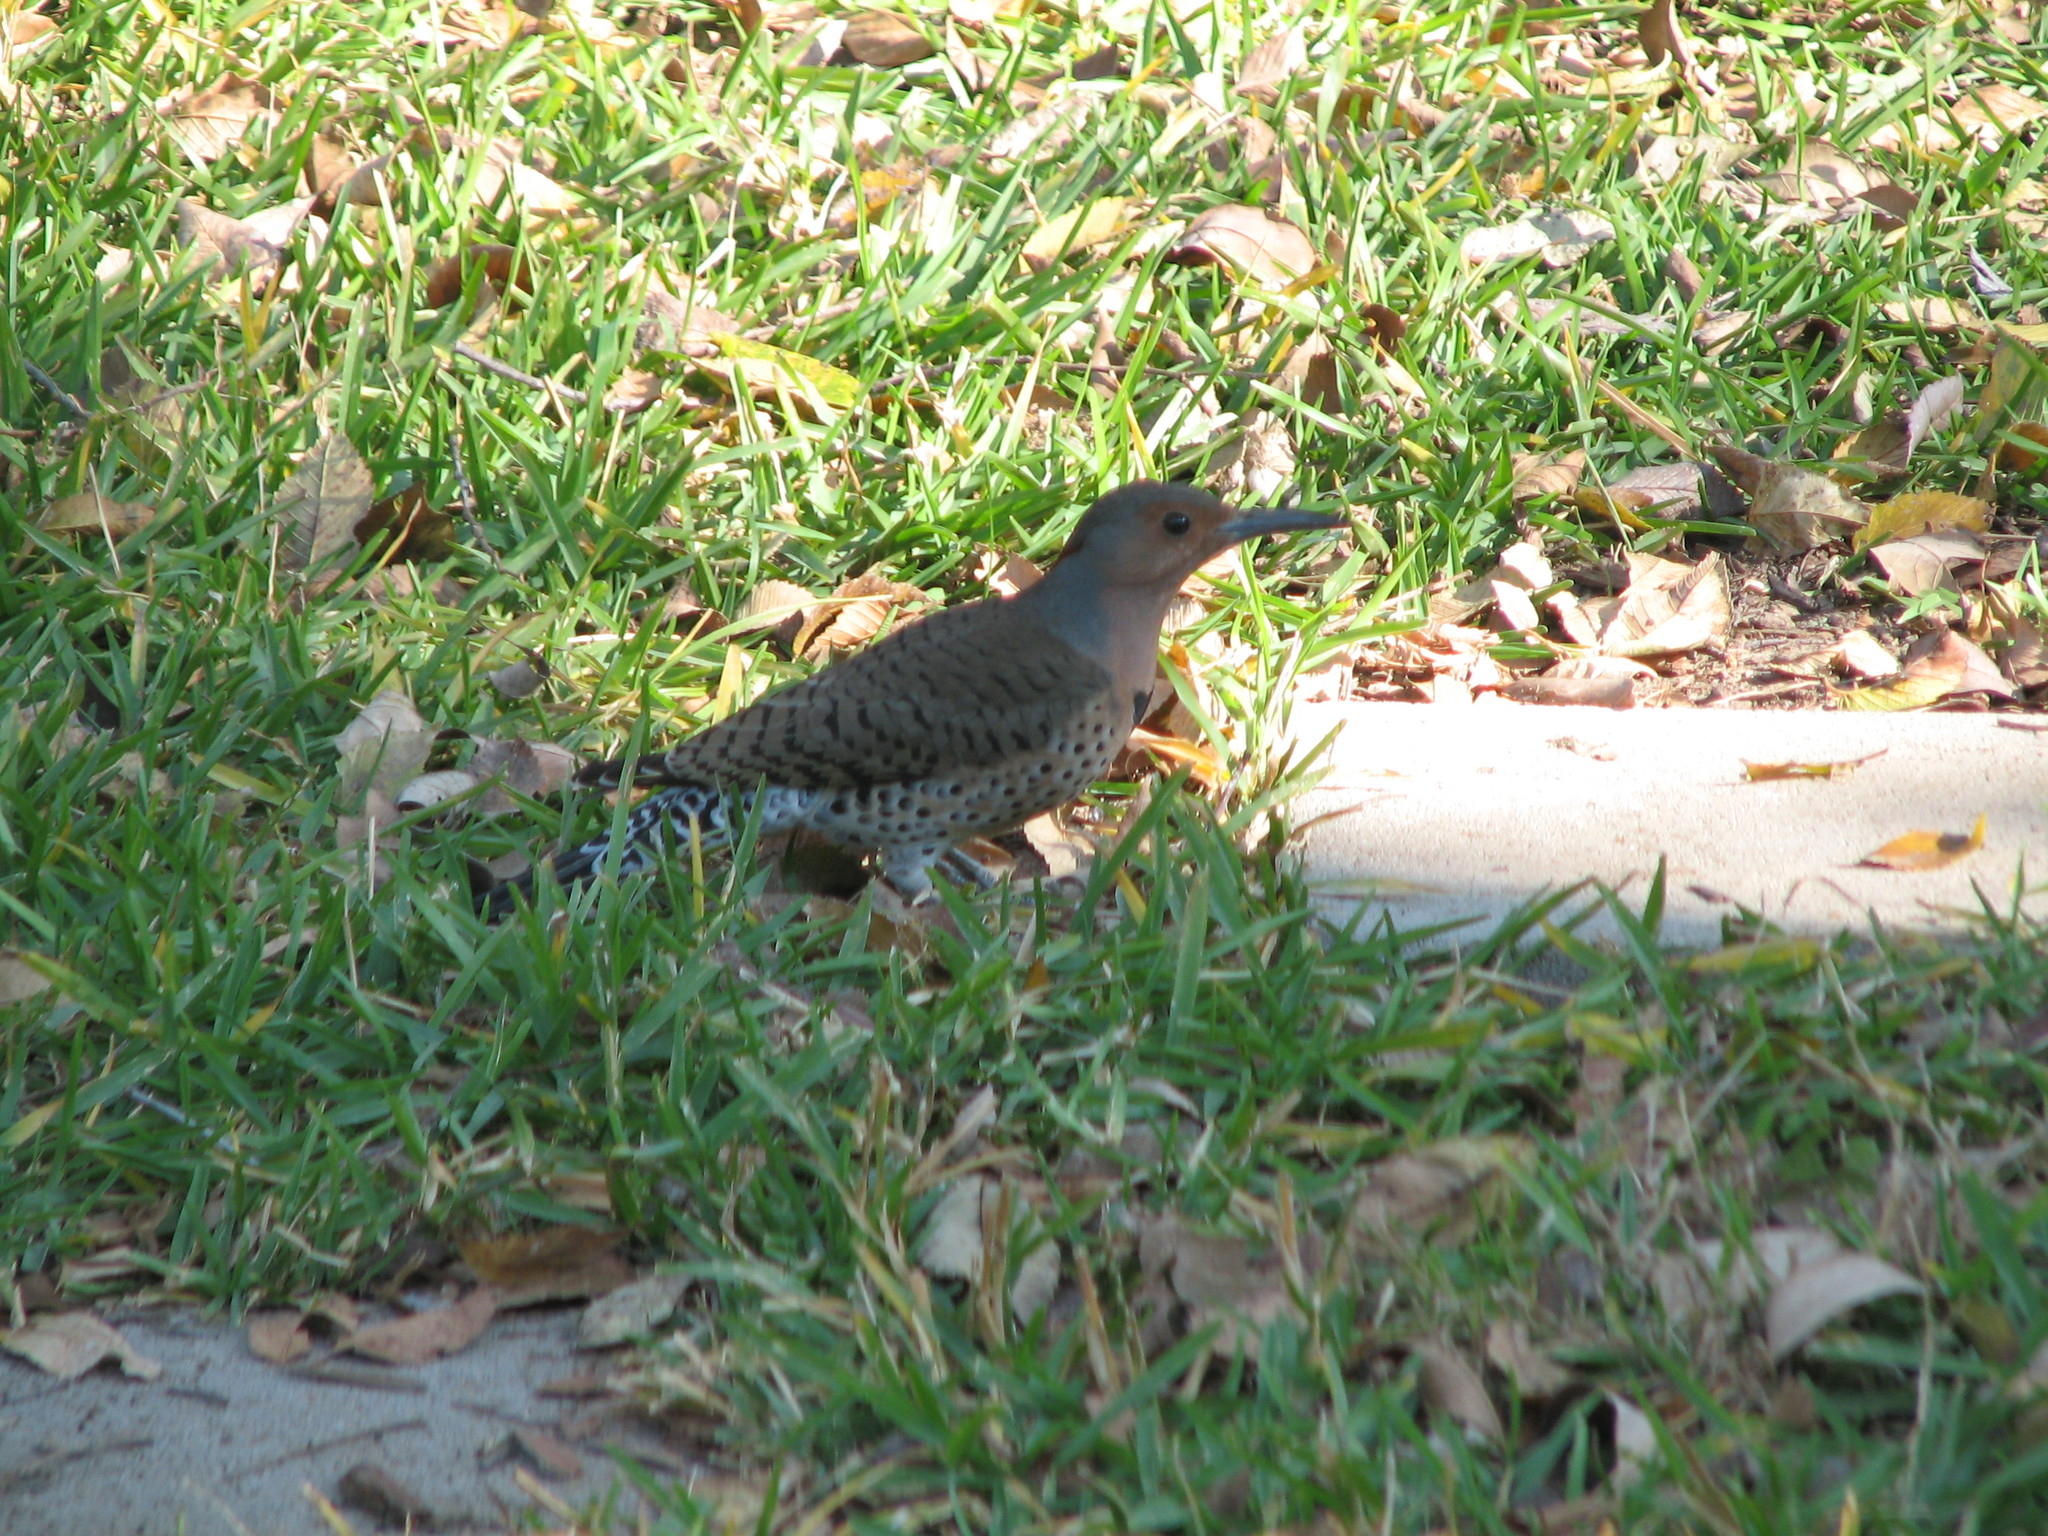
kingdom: Animalia
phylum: Chordata
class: Aves
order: Piciformes
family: Picidae
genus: Colaptes
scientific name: Colaptes auratus
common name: Northern flicker
